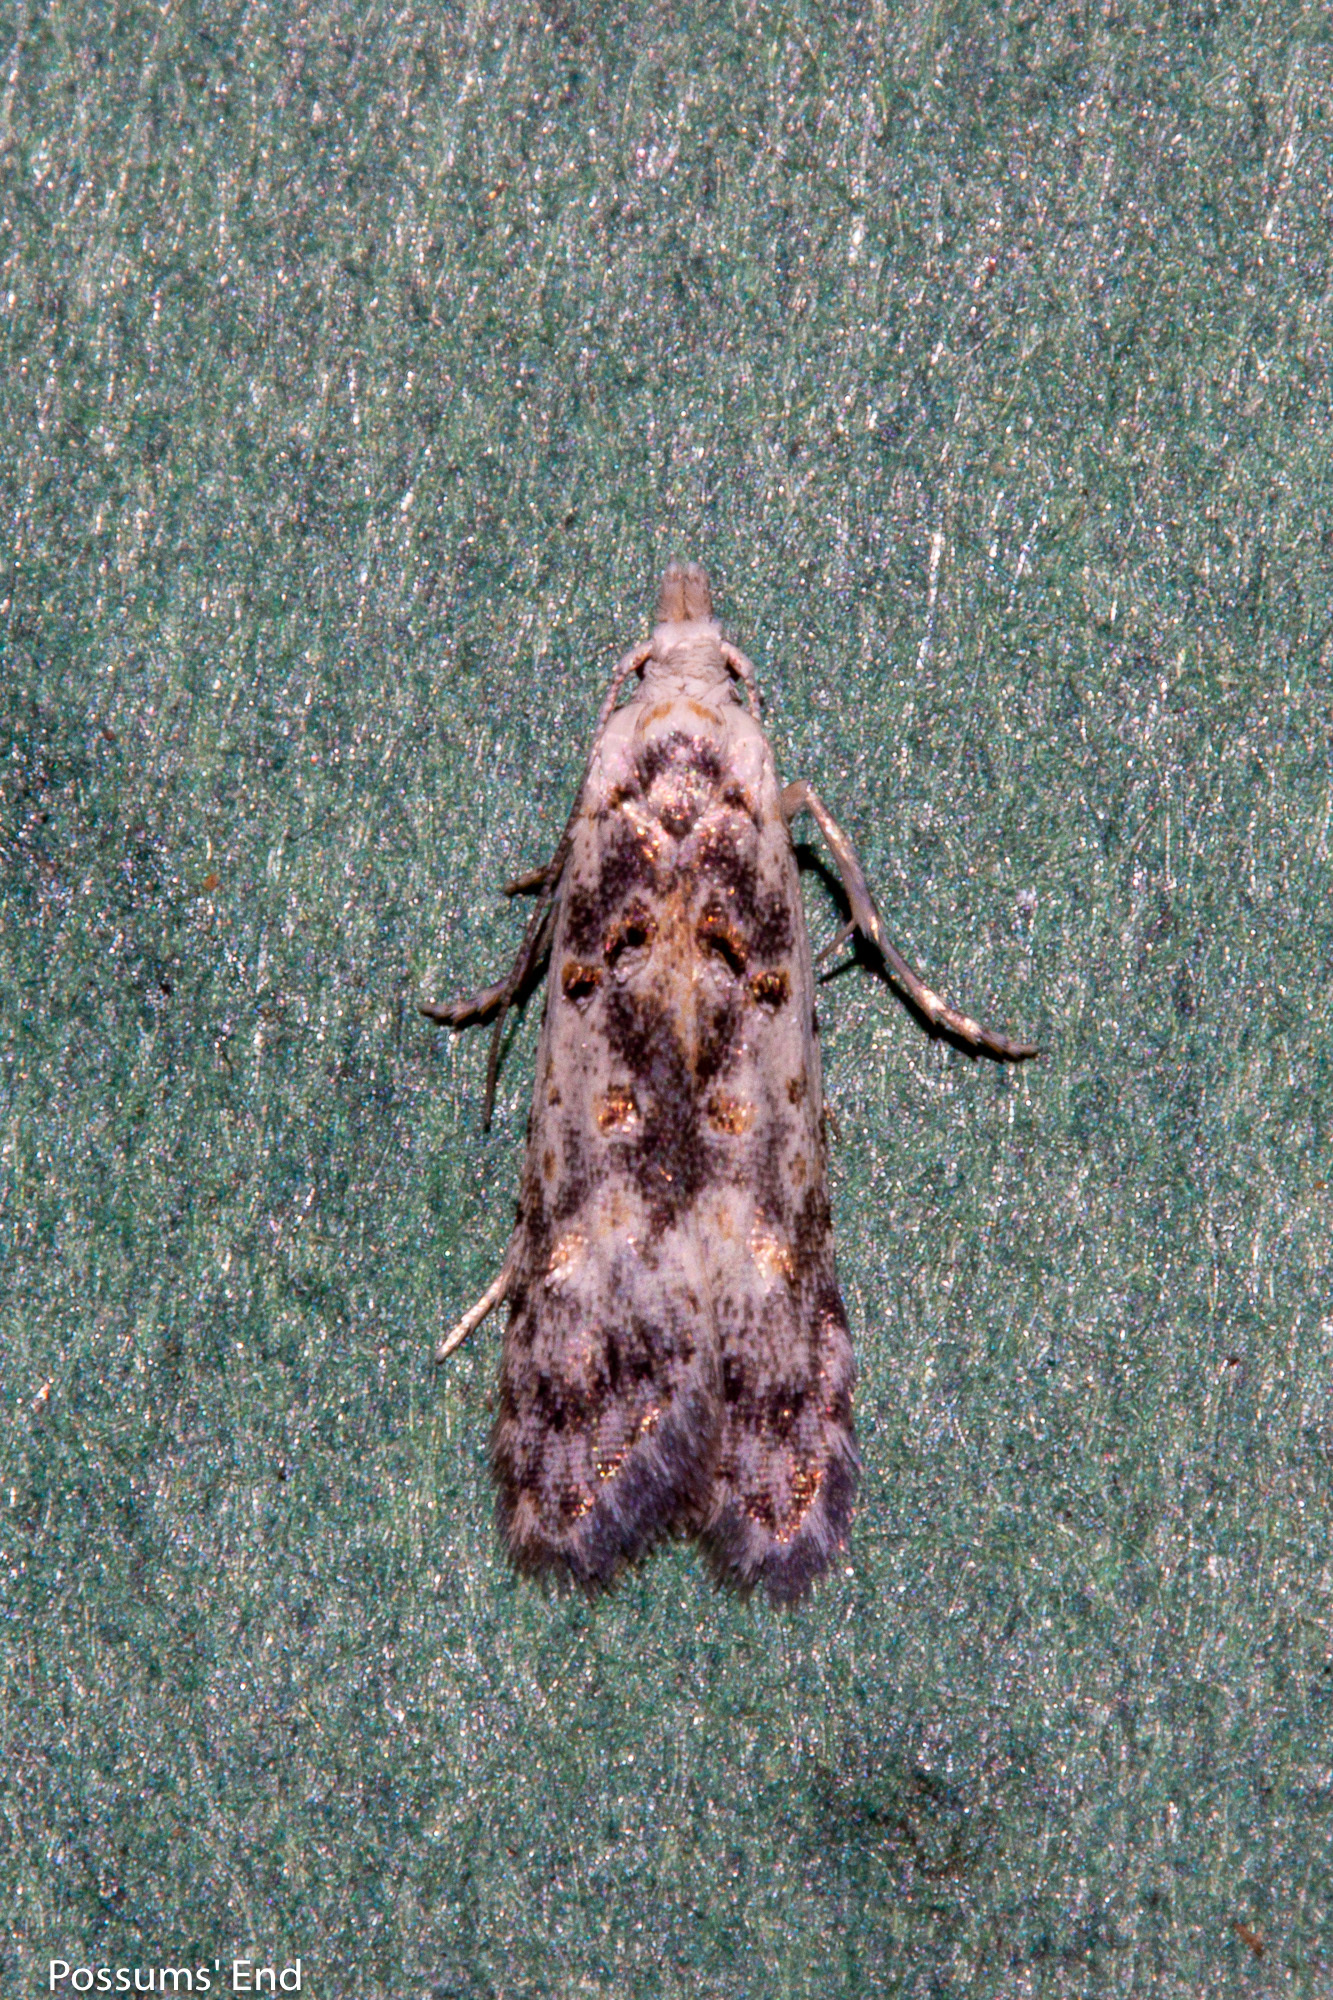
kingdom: Animalia
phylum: Arthropoda
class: Insecta
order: Lepidoptera
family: Carposinidae
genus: Carposina
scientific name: Carposina
